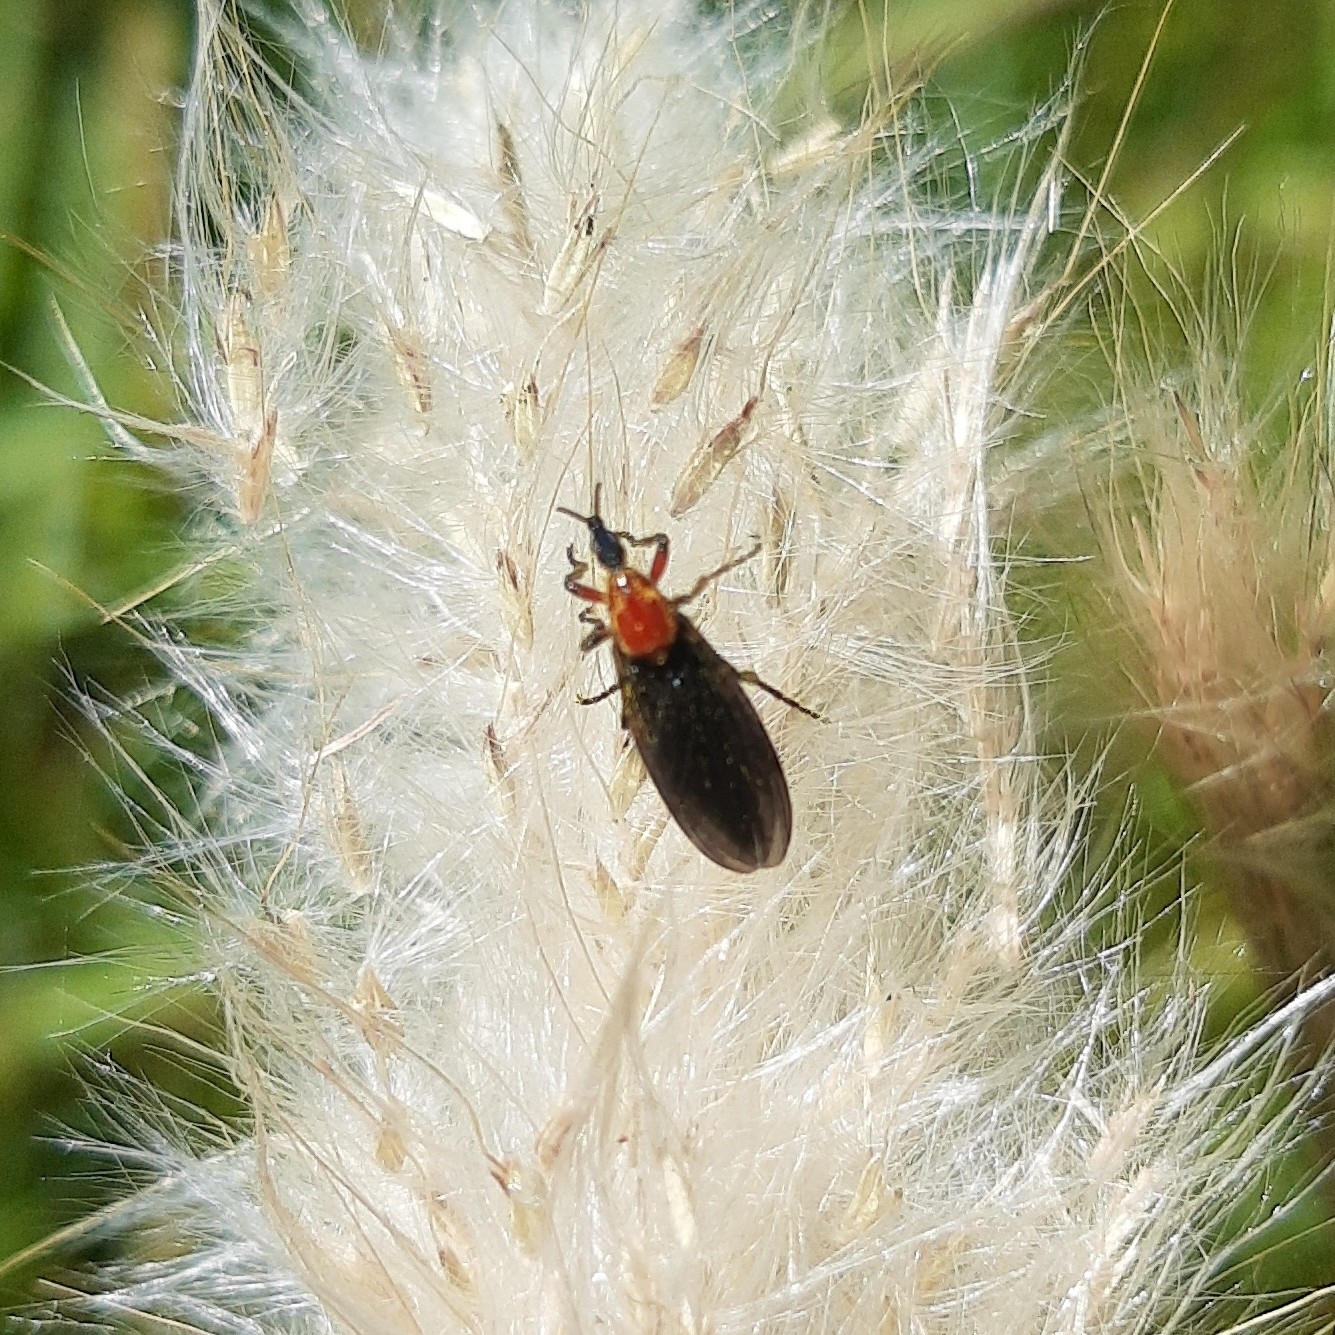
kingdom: Animalia
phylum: Arthropoda
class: Insecta
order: Diptera
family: Bibionidae
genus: Dilophus
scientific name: Dilophus pectoralis
